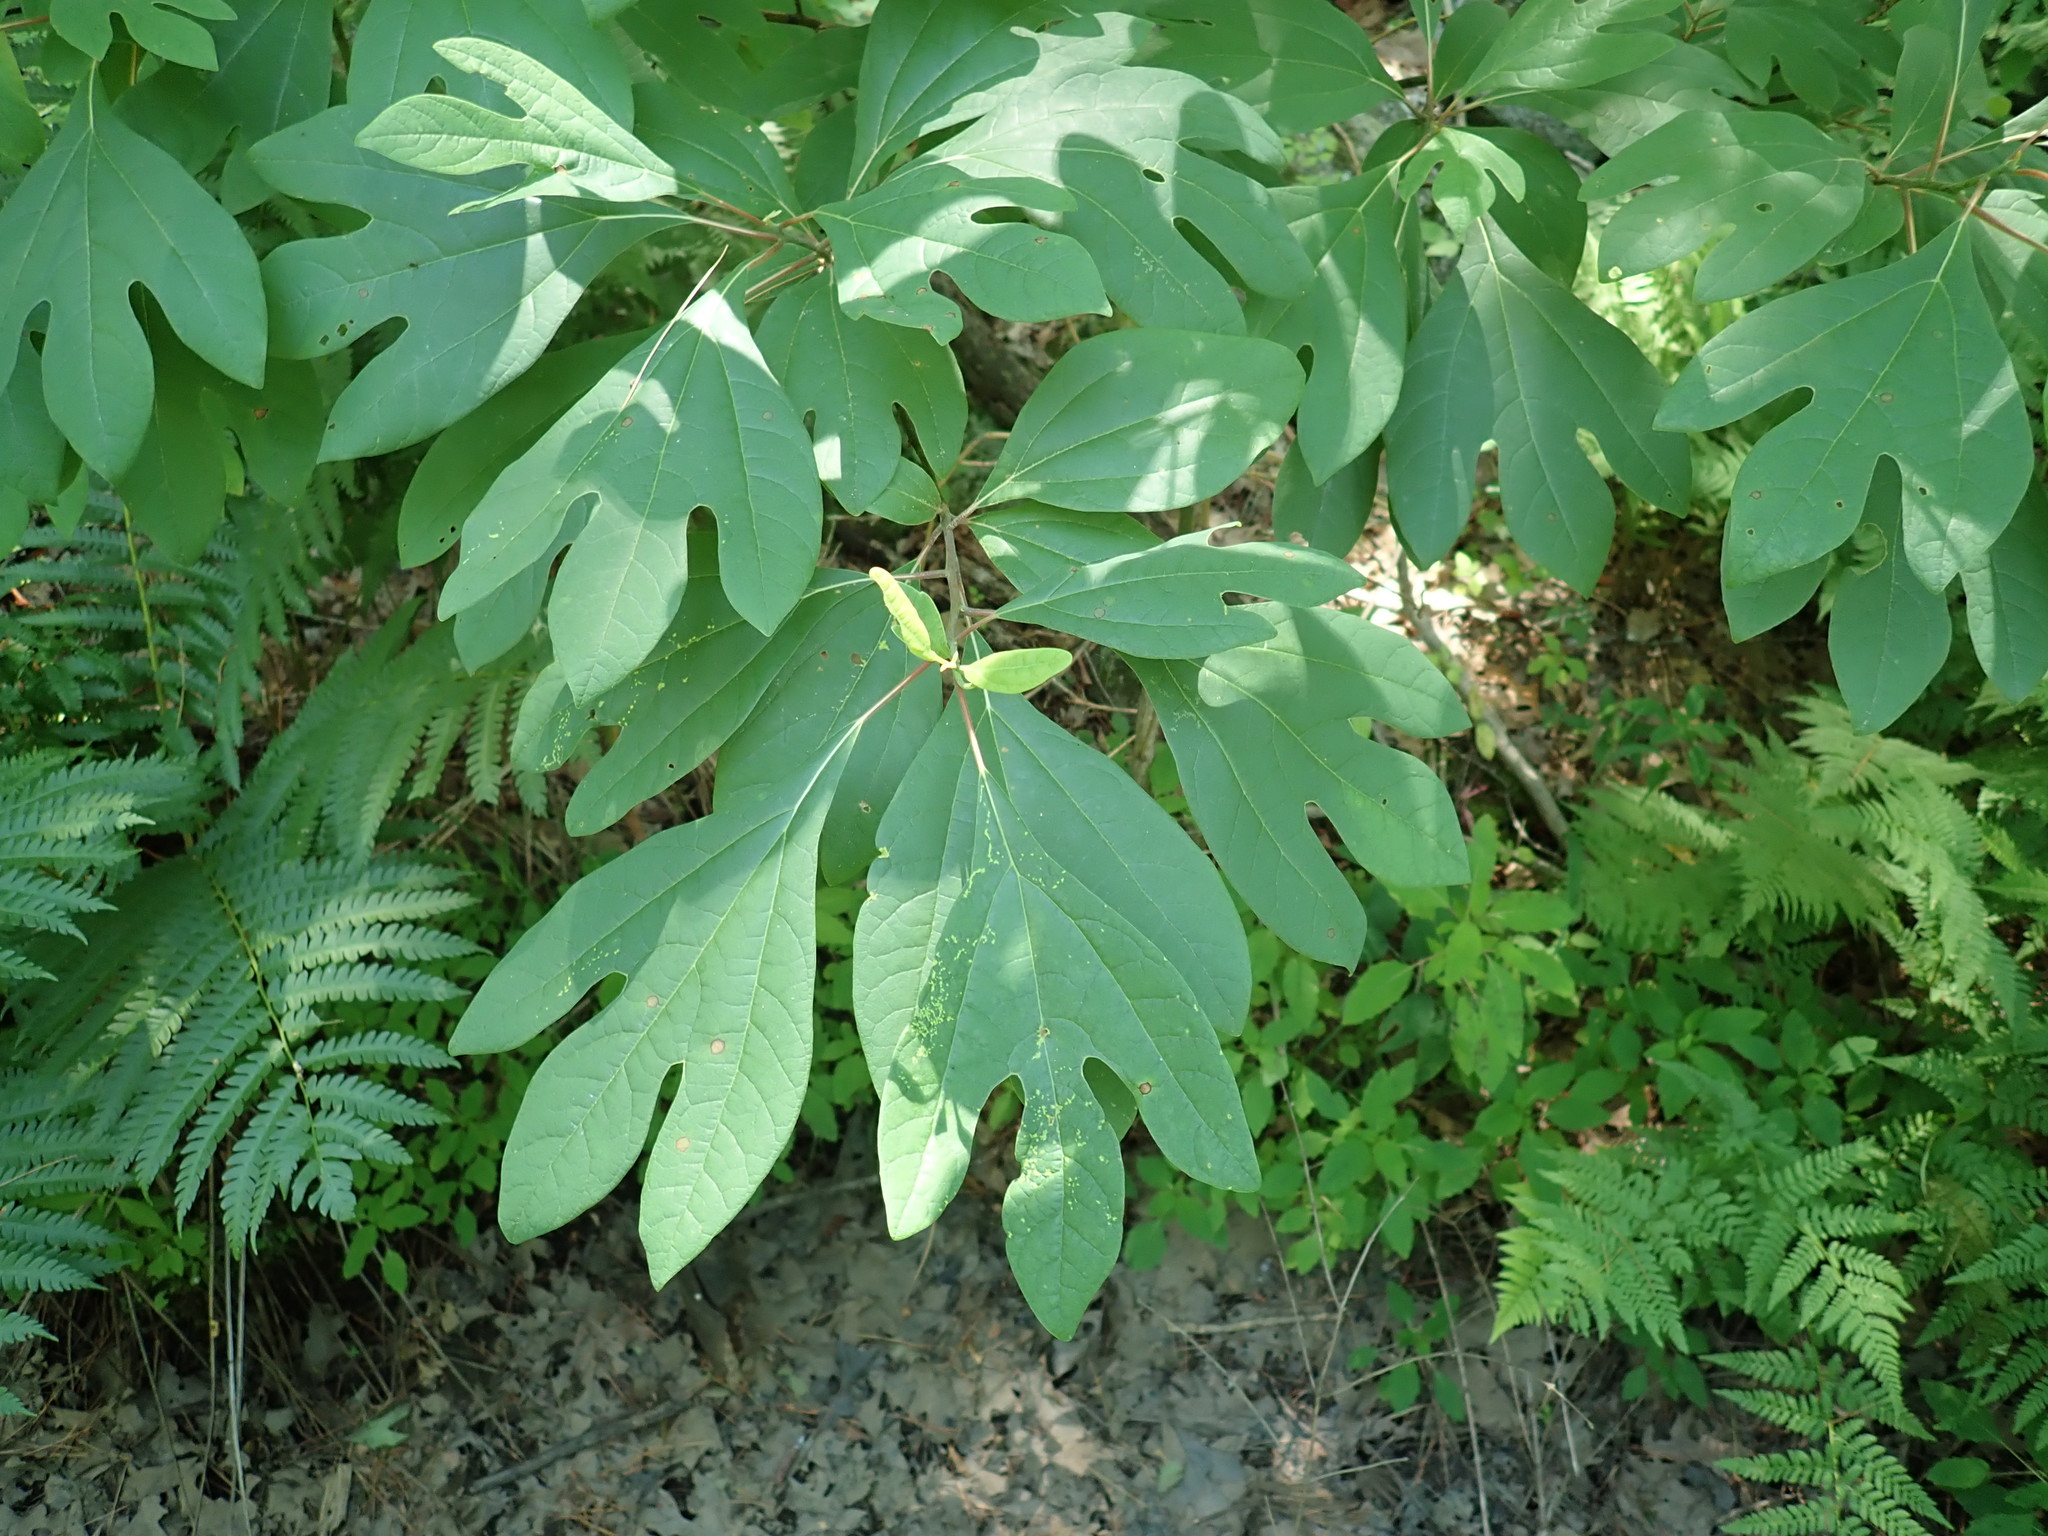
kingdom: Plantae
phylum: Tracheophyta
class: Magnoliopsida
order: Laurales
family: Lauraceae
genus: Sassafras
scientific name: Sassafras albidum
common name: Sassafras
